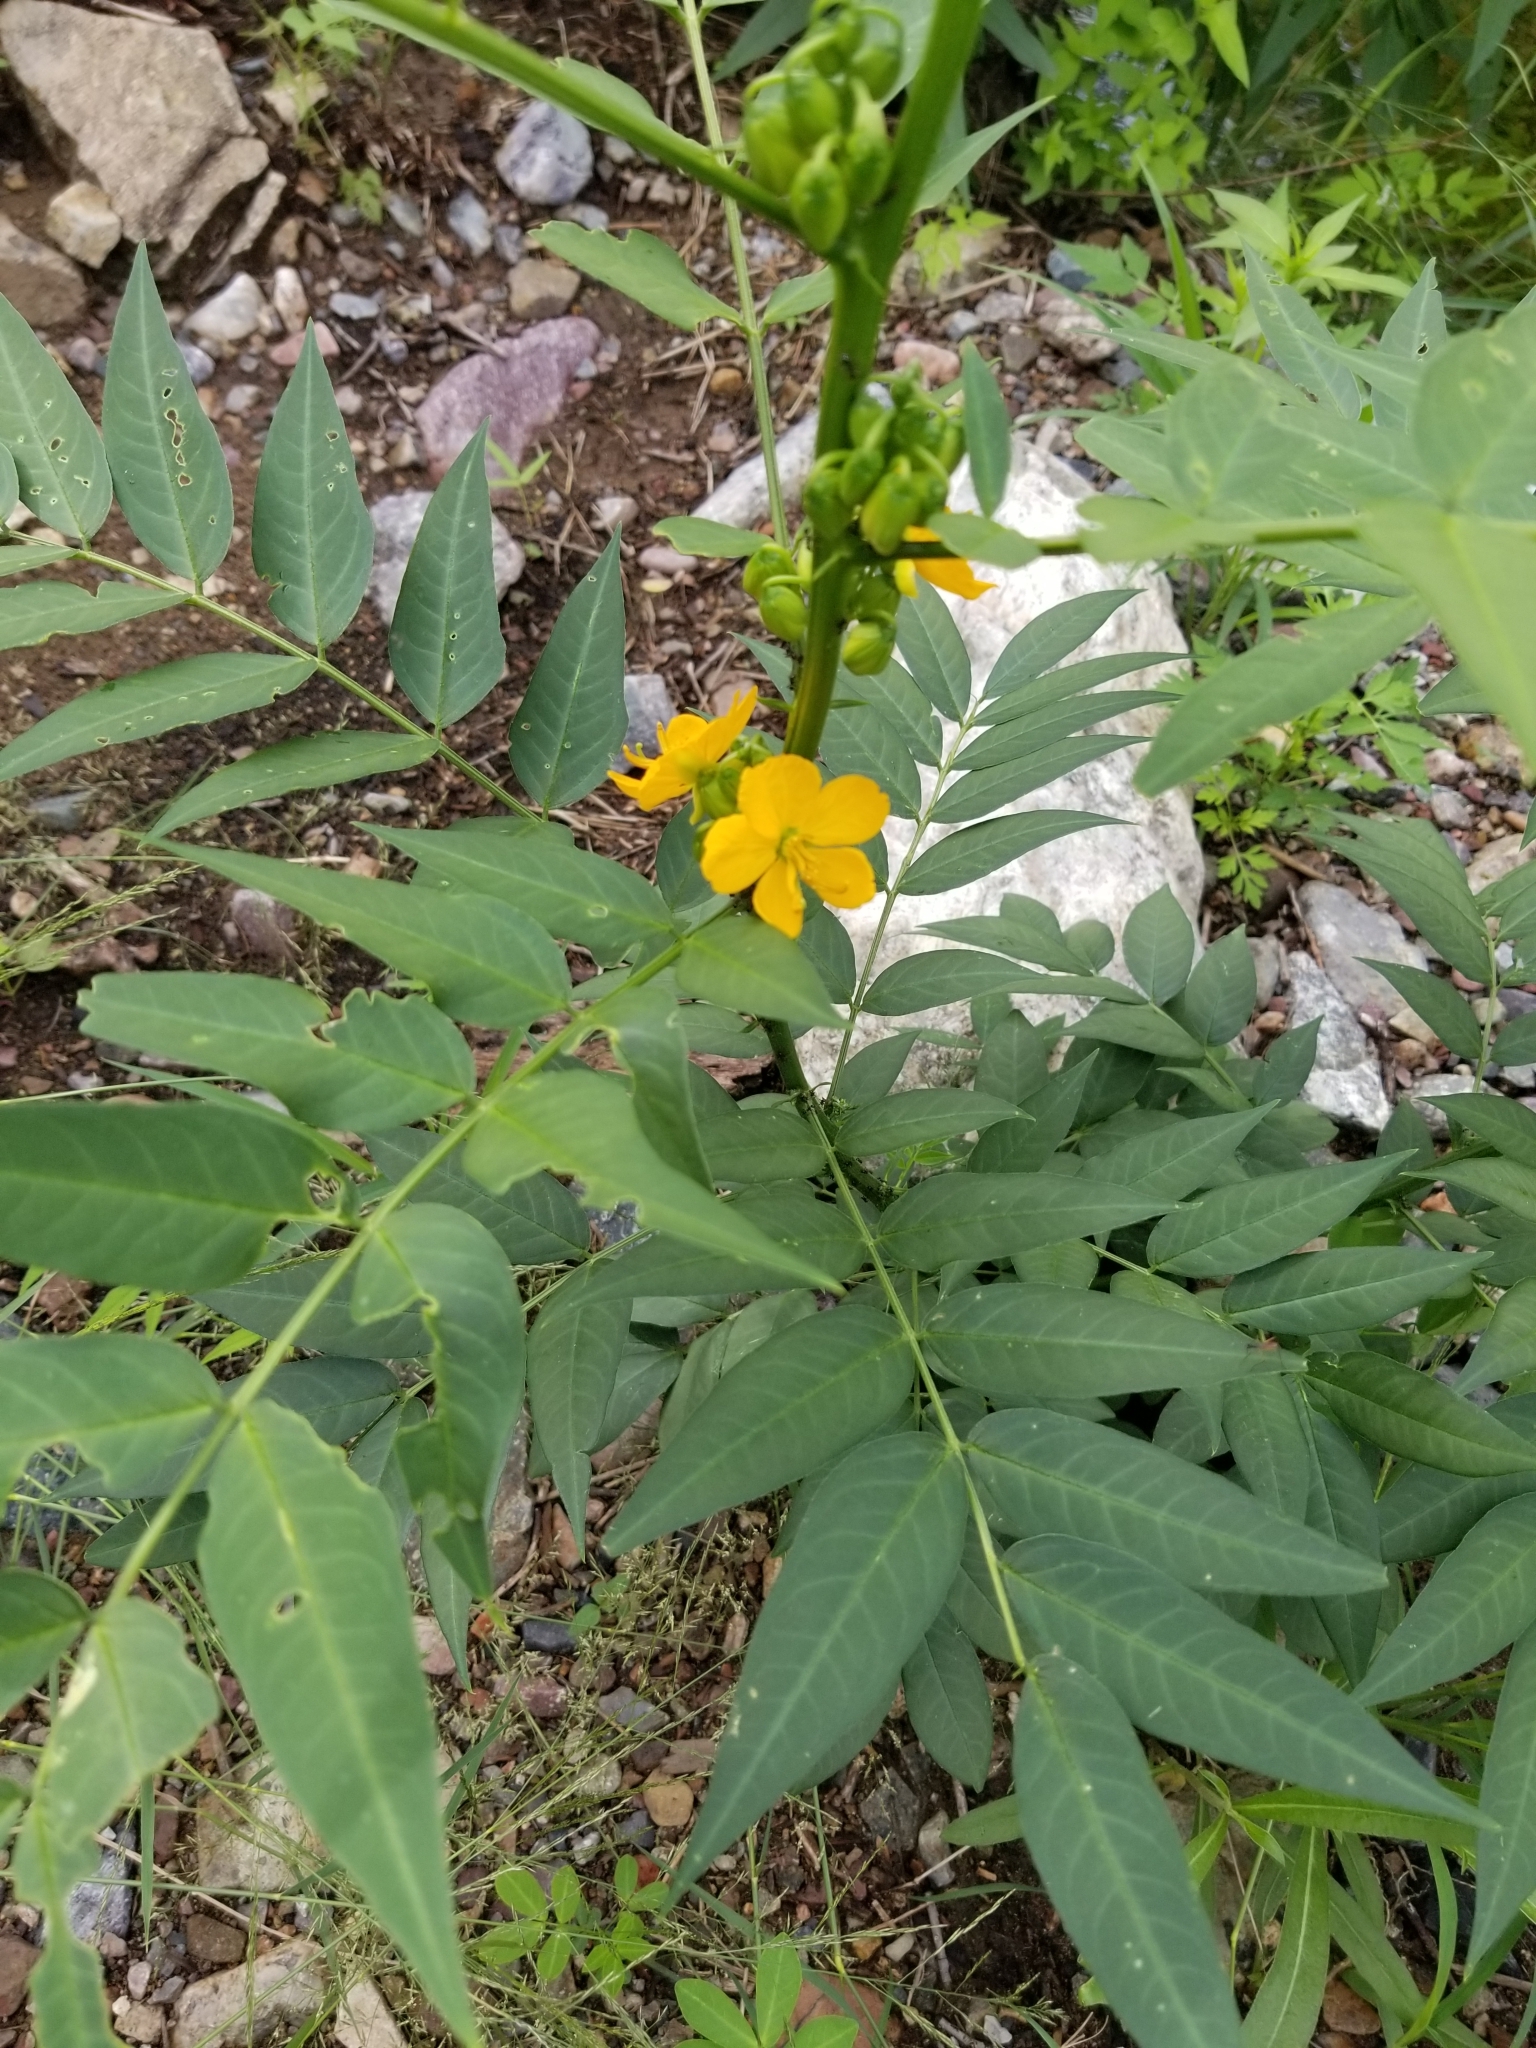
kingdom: Plantae
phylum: Tracheophyta
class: Magnoliopsida
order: Fabales
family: Fabaceae
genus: Senna
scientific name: Senna hirsuta
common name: Woolly senna
